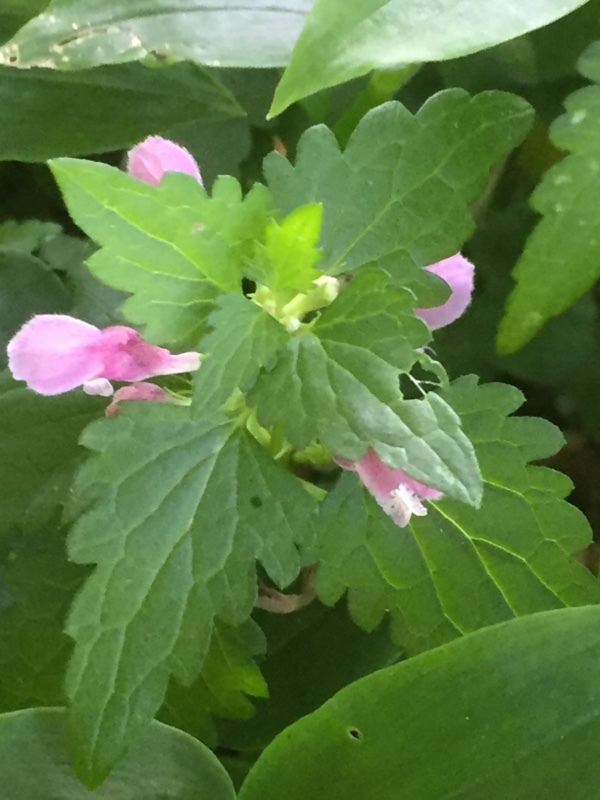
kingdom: Plantae
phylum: Tracheophyta
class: Magnoliopsida
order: Lamiales
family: Lamiaceae
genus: Lamium
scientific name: Lamium maculatum
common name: Spotted dead-nettle
